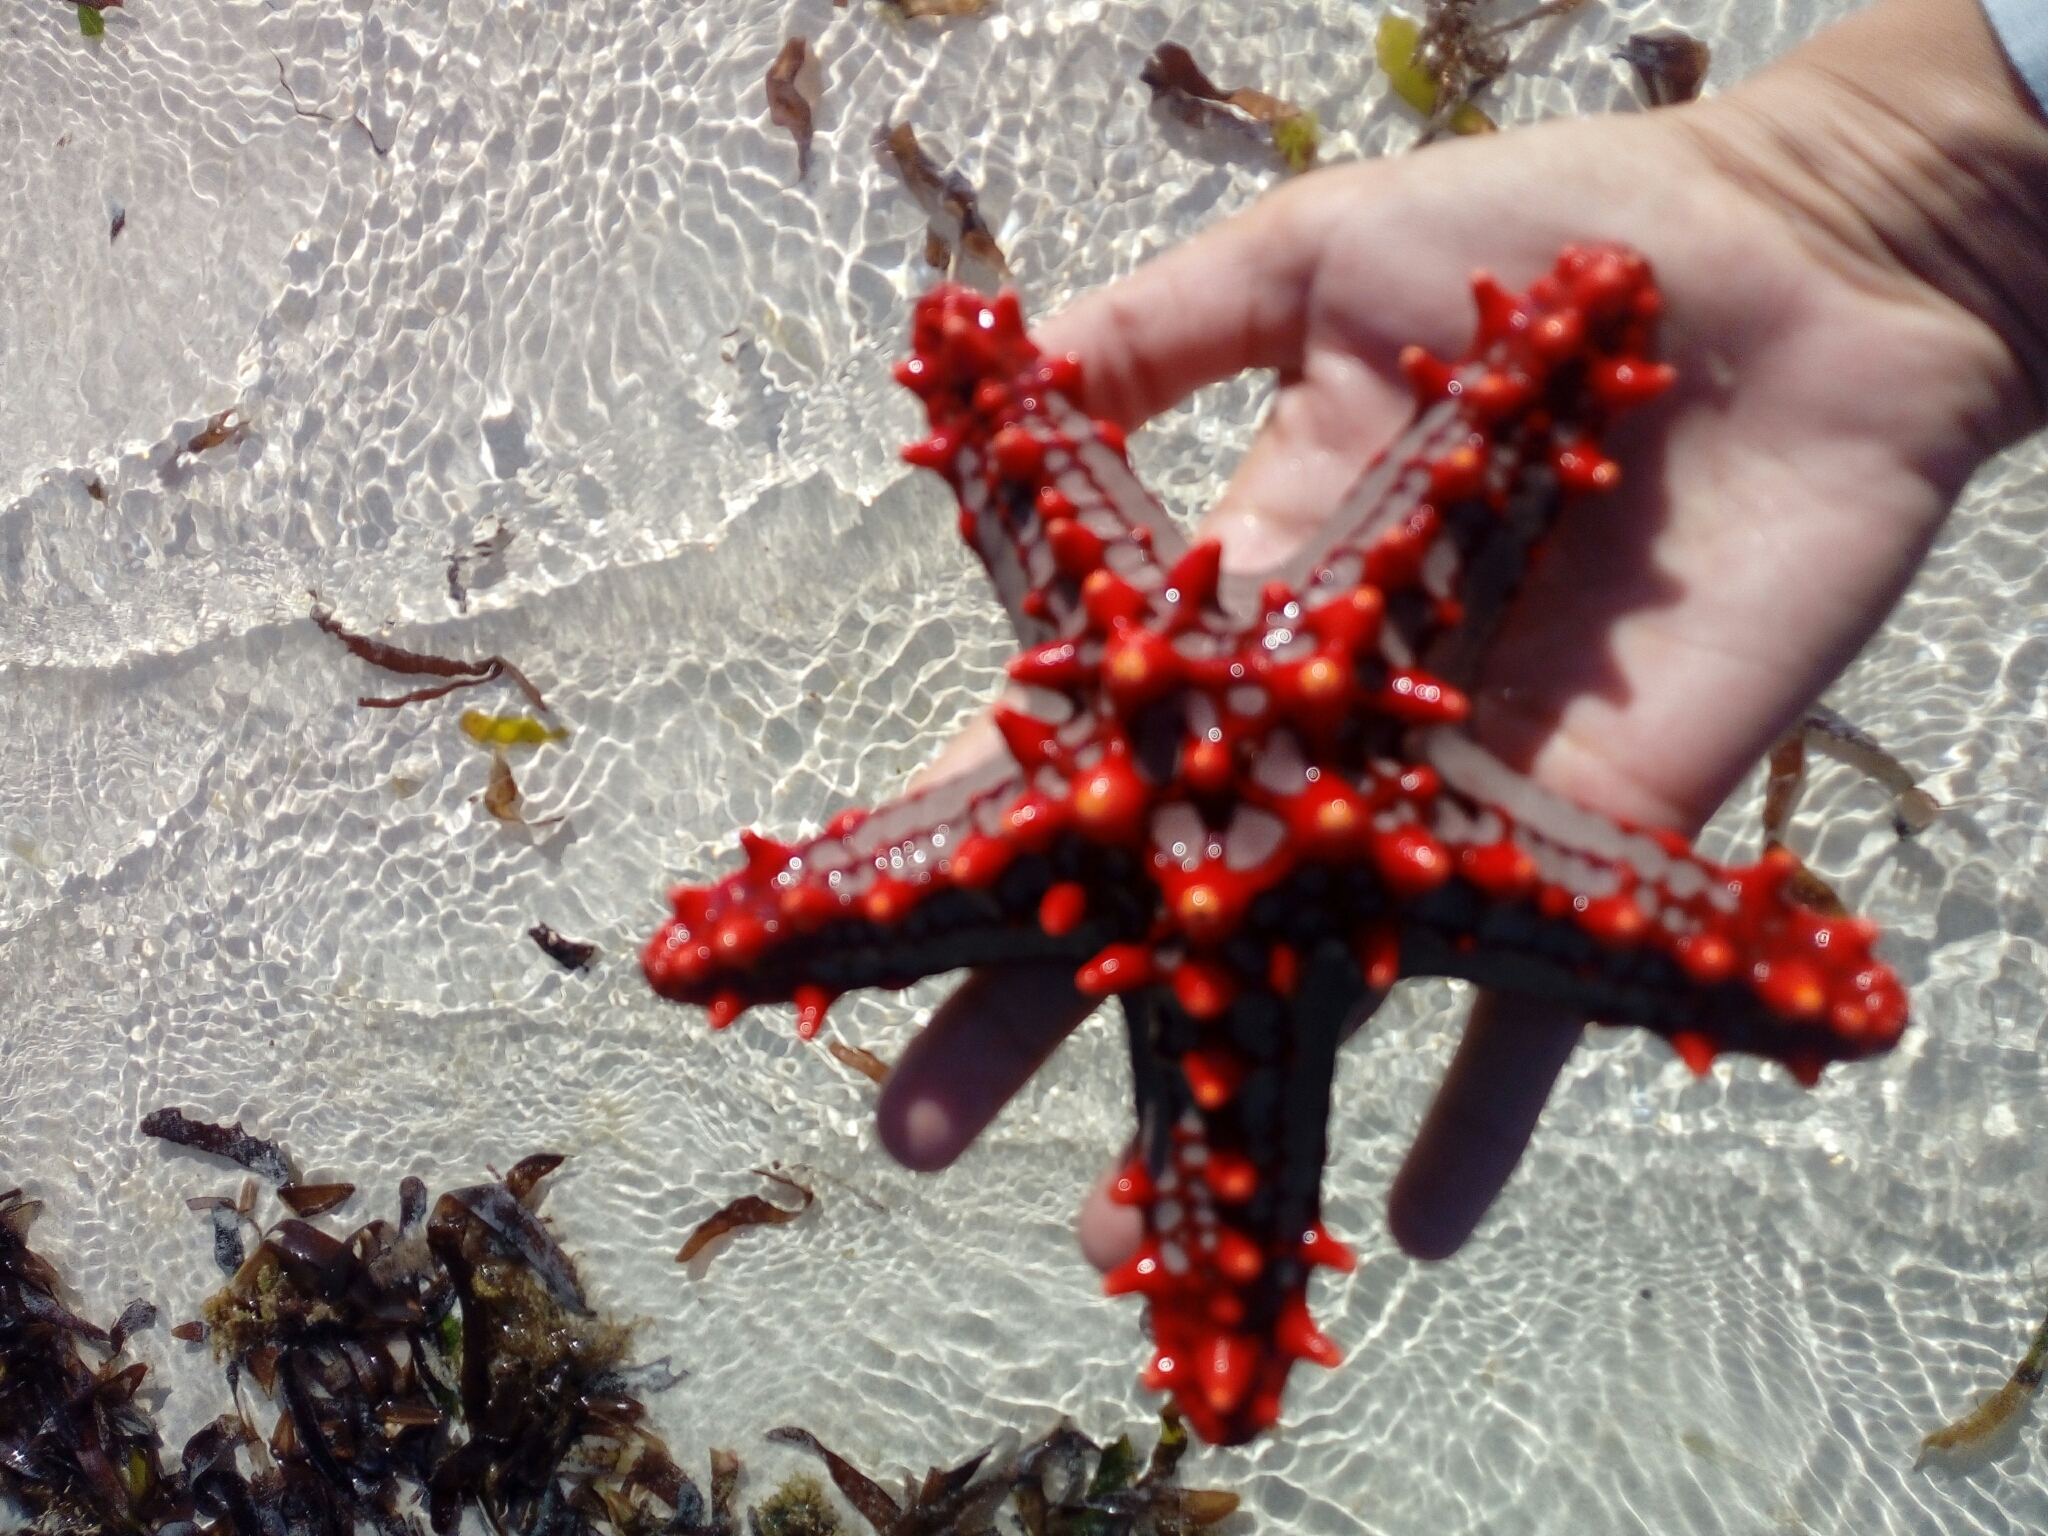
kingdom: Animalia
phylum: Echinodermata
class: Asteroidea
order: Valvatida
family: Oreasteridae
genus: Protoreaster
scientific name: Protoreaster lincki
